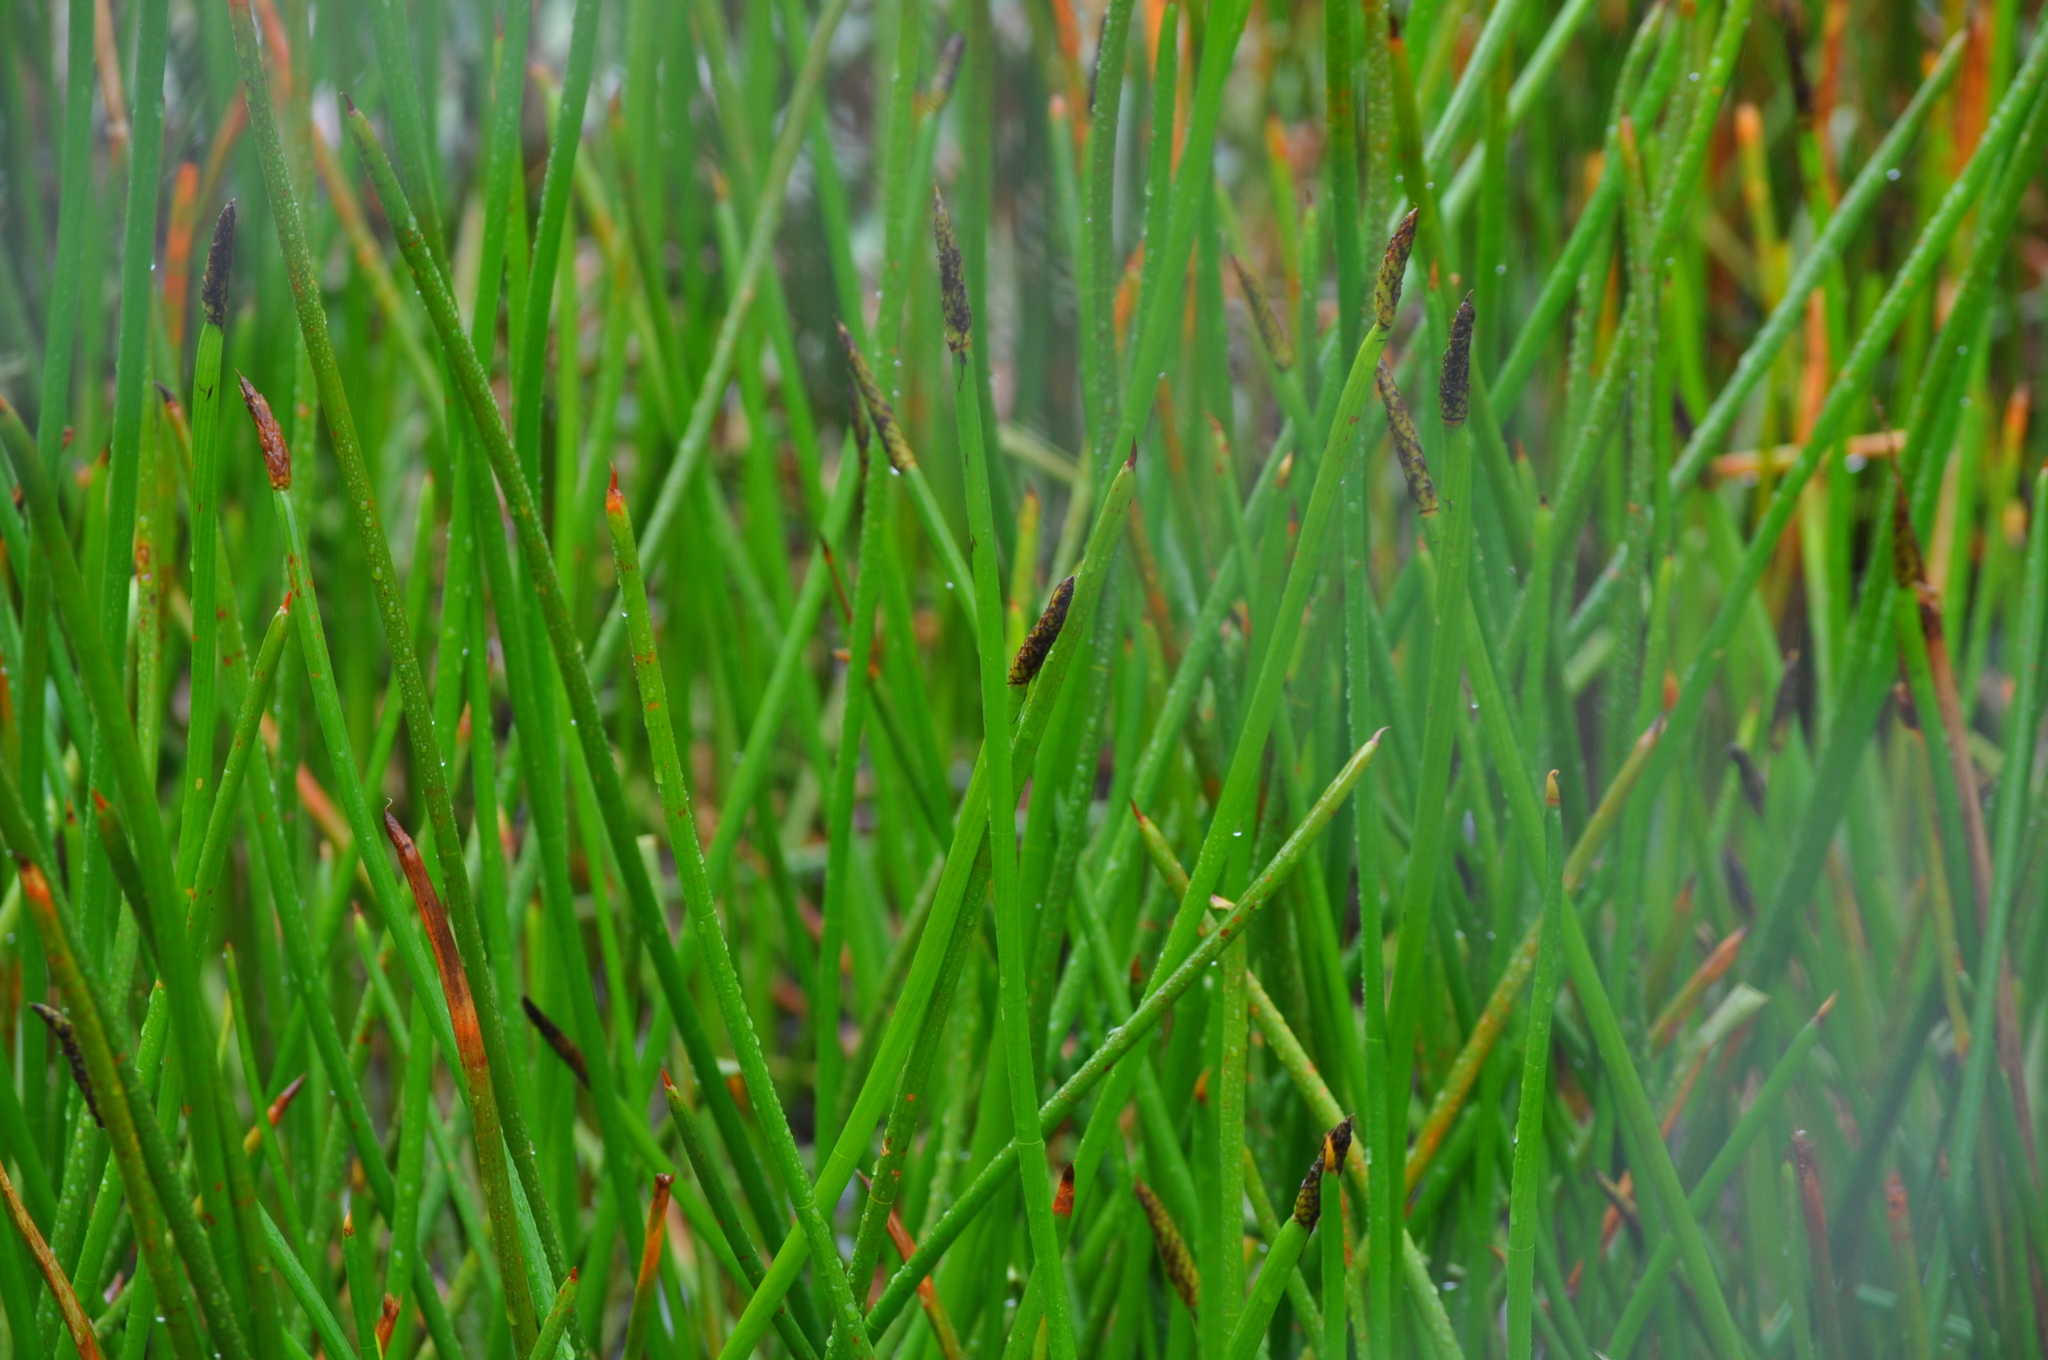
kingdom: Plantae
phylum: Tracheophyta
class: Liliopsida
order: Poales
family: Cyperaceae
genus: Eleocharis
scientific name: Eleocharis sphacelata
